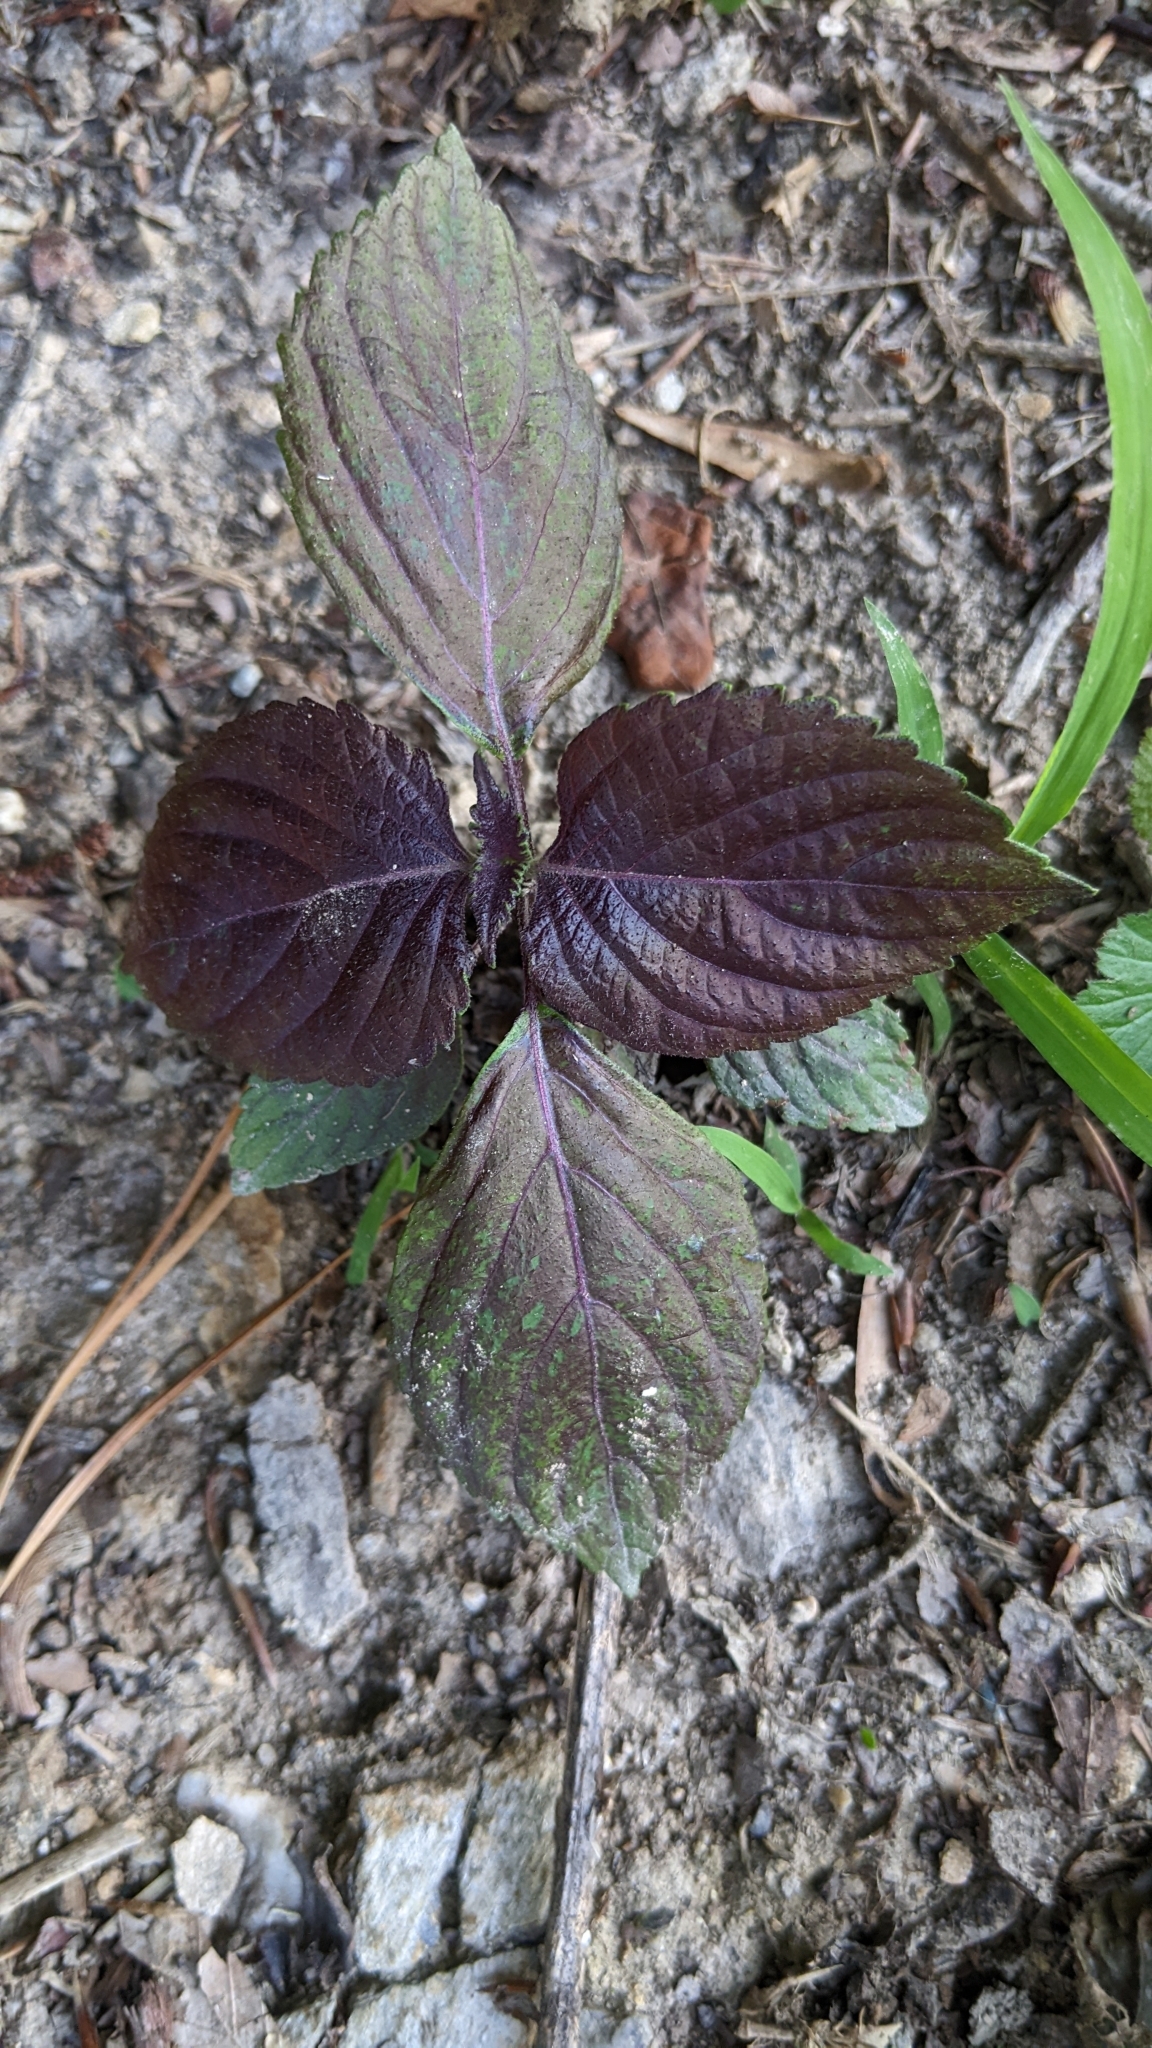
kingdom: Plantae
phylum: Tracheophyta
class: Magnoliopsida
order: Lamiales
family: Lamiaceae
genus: Perilla
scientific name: Perilla frutescens
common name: Perilla
